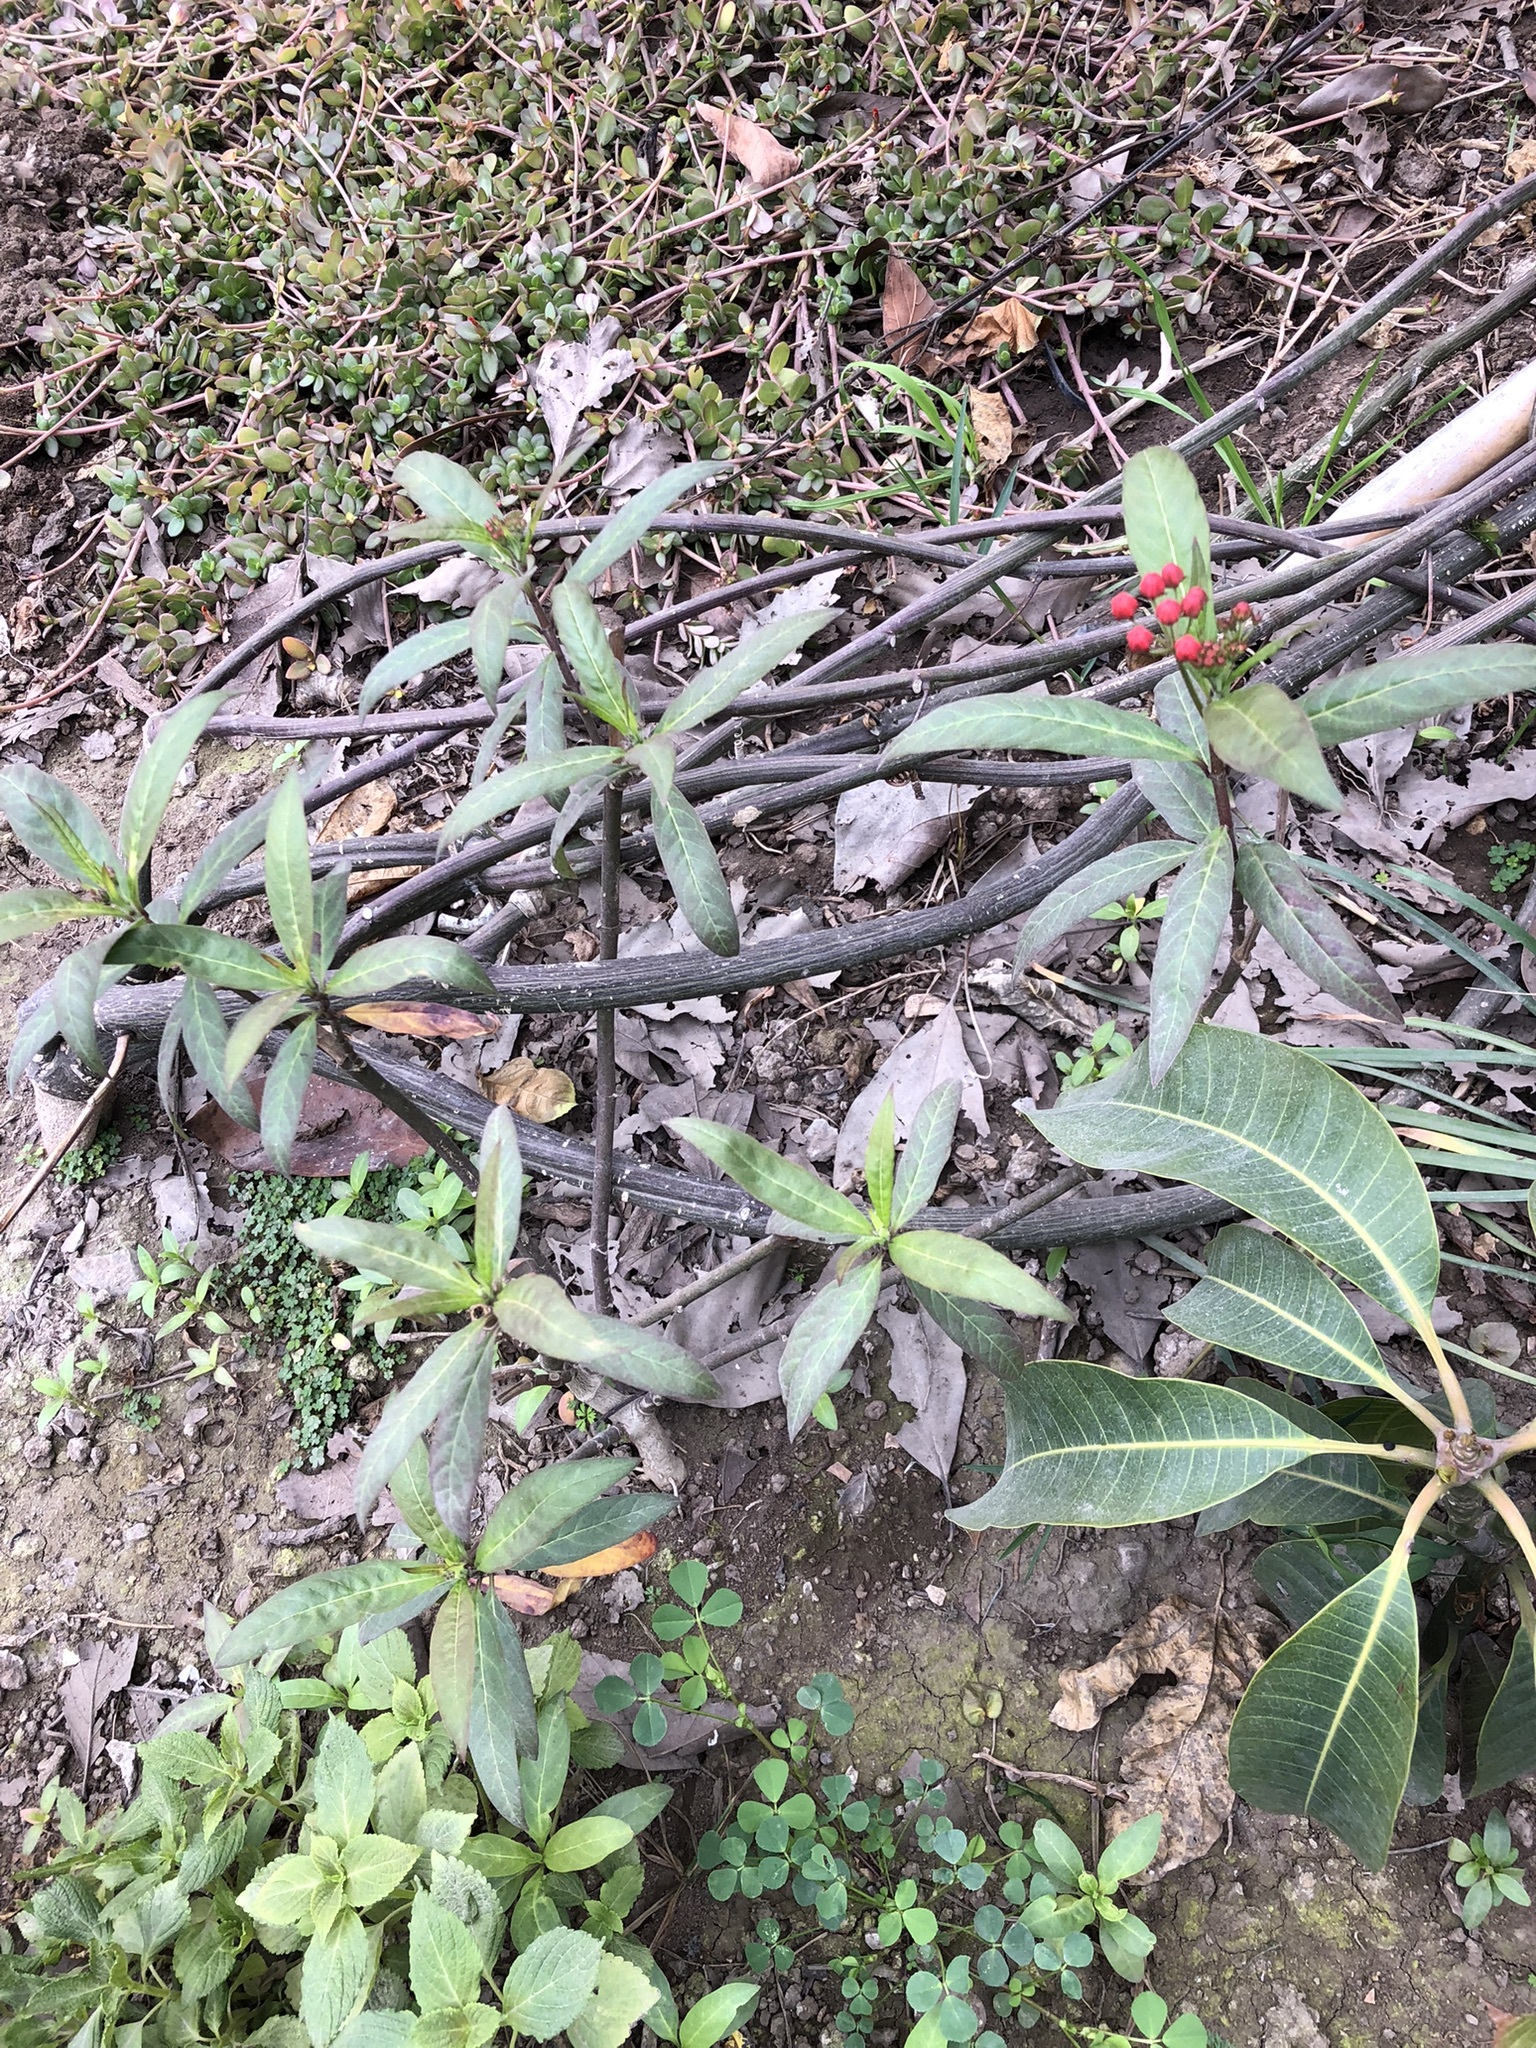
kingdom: Plantae
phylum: Tracheophyta
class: Magnoliopsida
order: Gentianales
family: Apocynaceae
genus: Asclepias
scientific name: Asclepias curassavica
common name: Bloodflower
